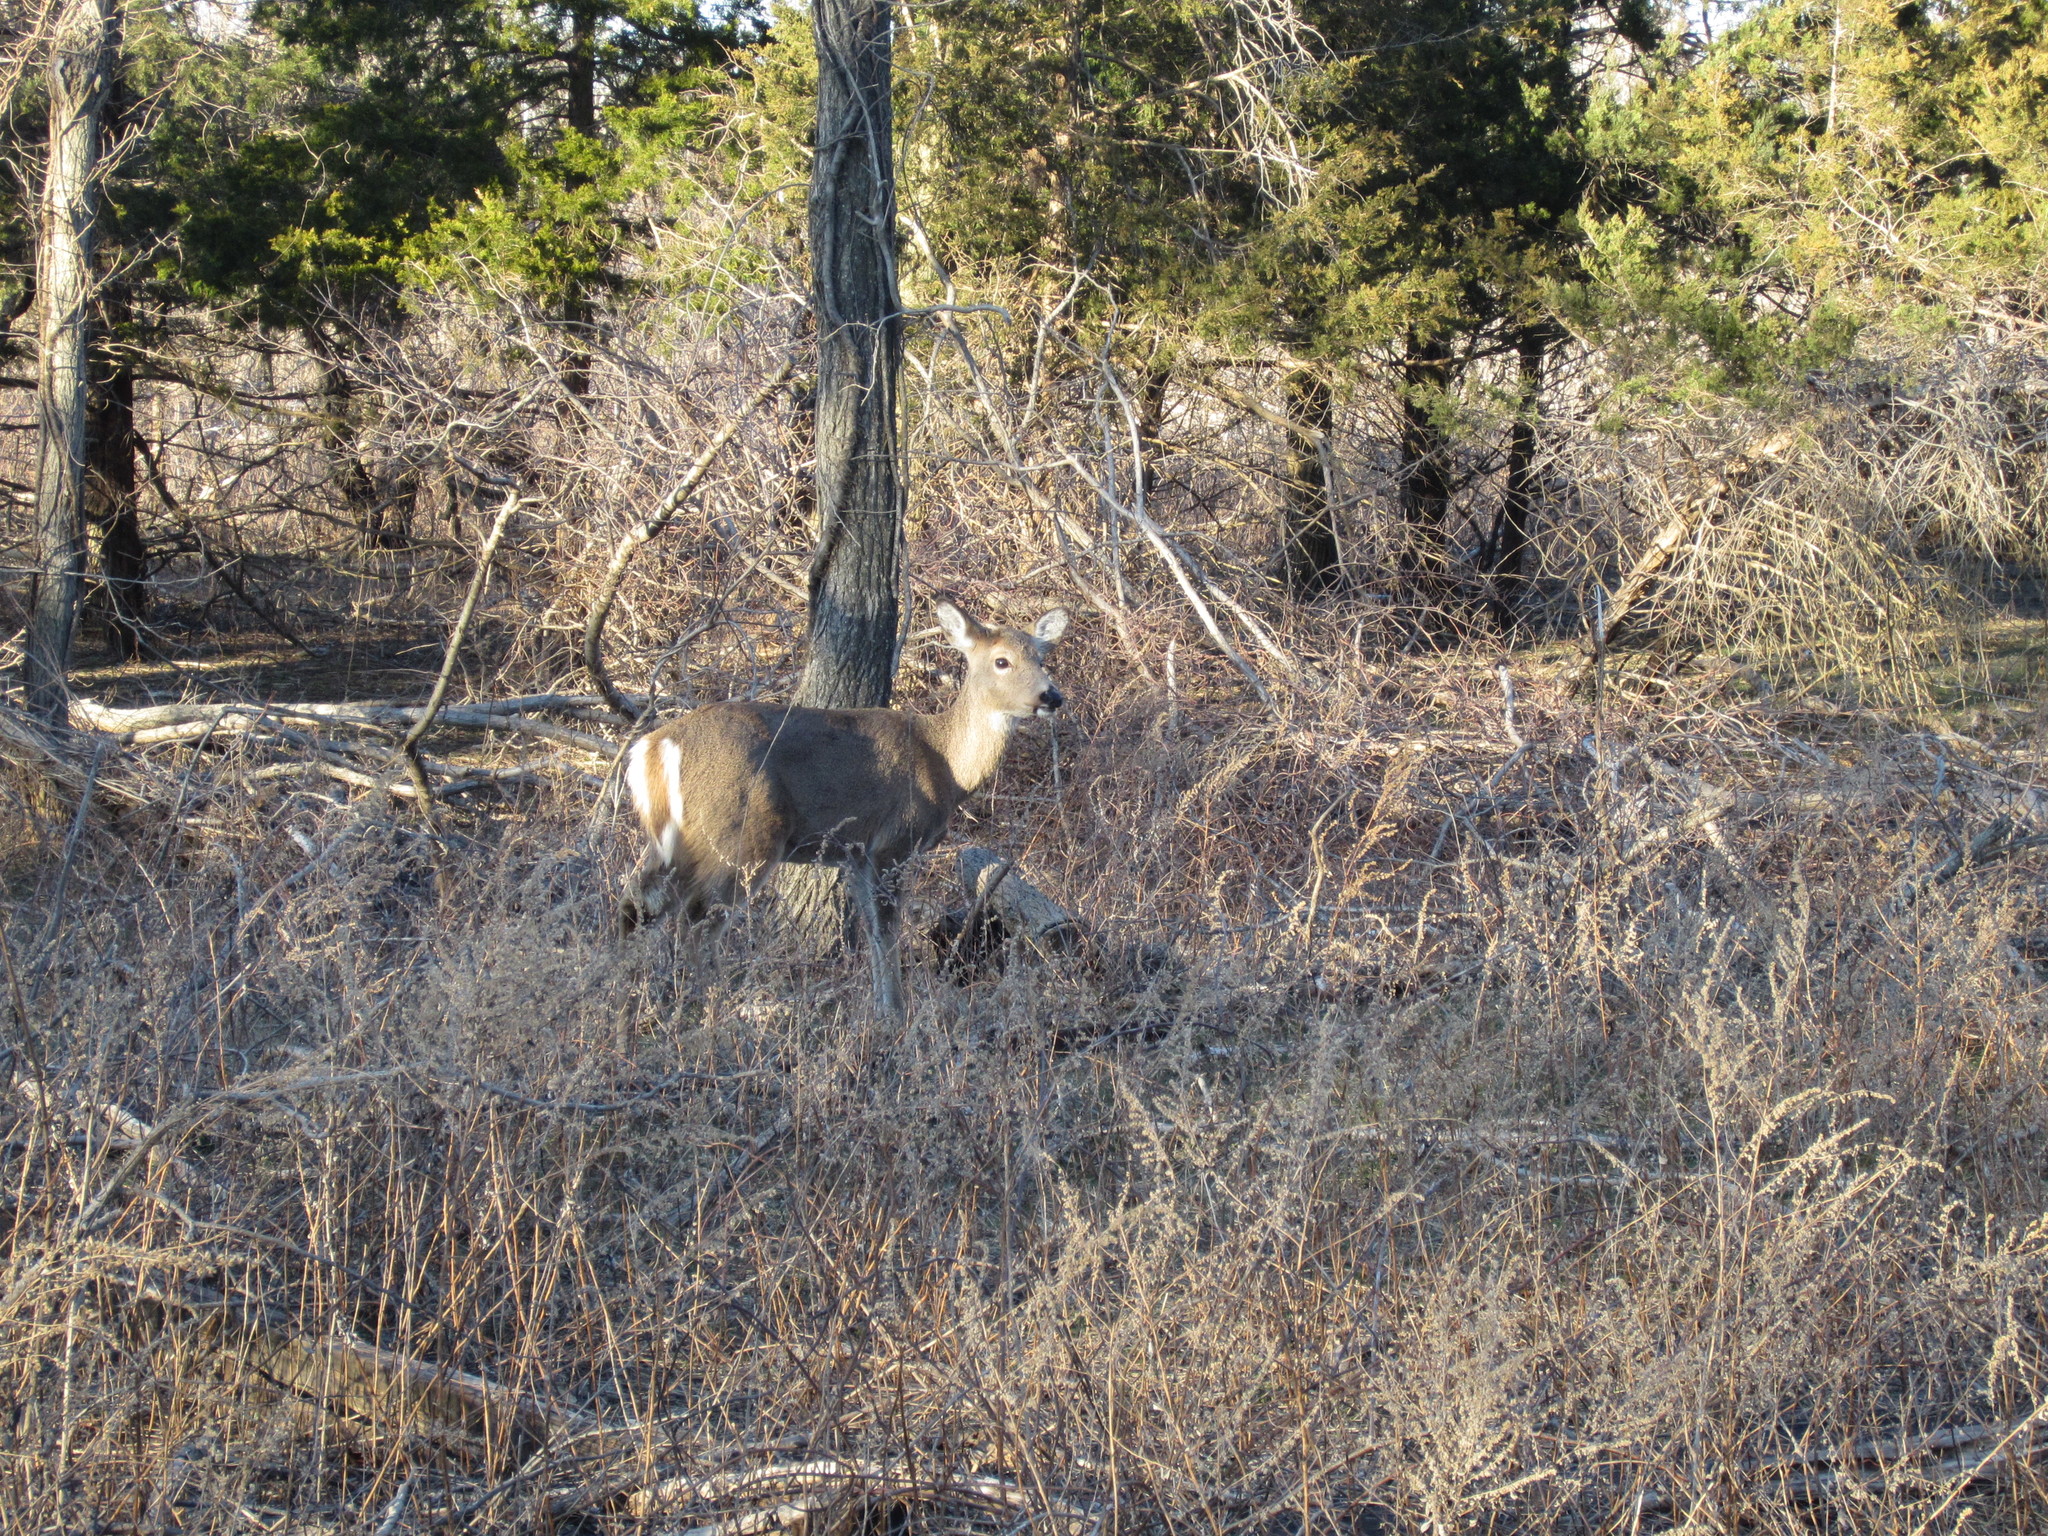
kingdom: Animalia
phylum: Chordata
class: Mammalia
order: Artiodactyla
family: Cervidae
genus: Odocoileus
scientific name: Odocoileus virginianus
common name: White-tailed deer
